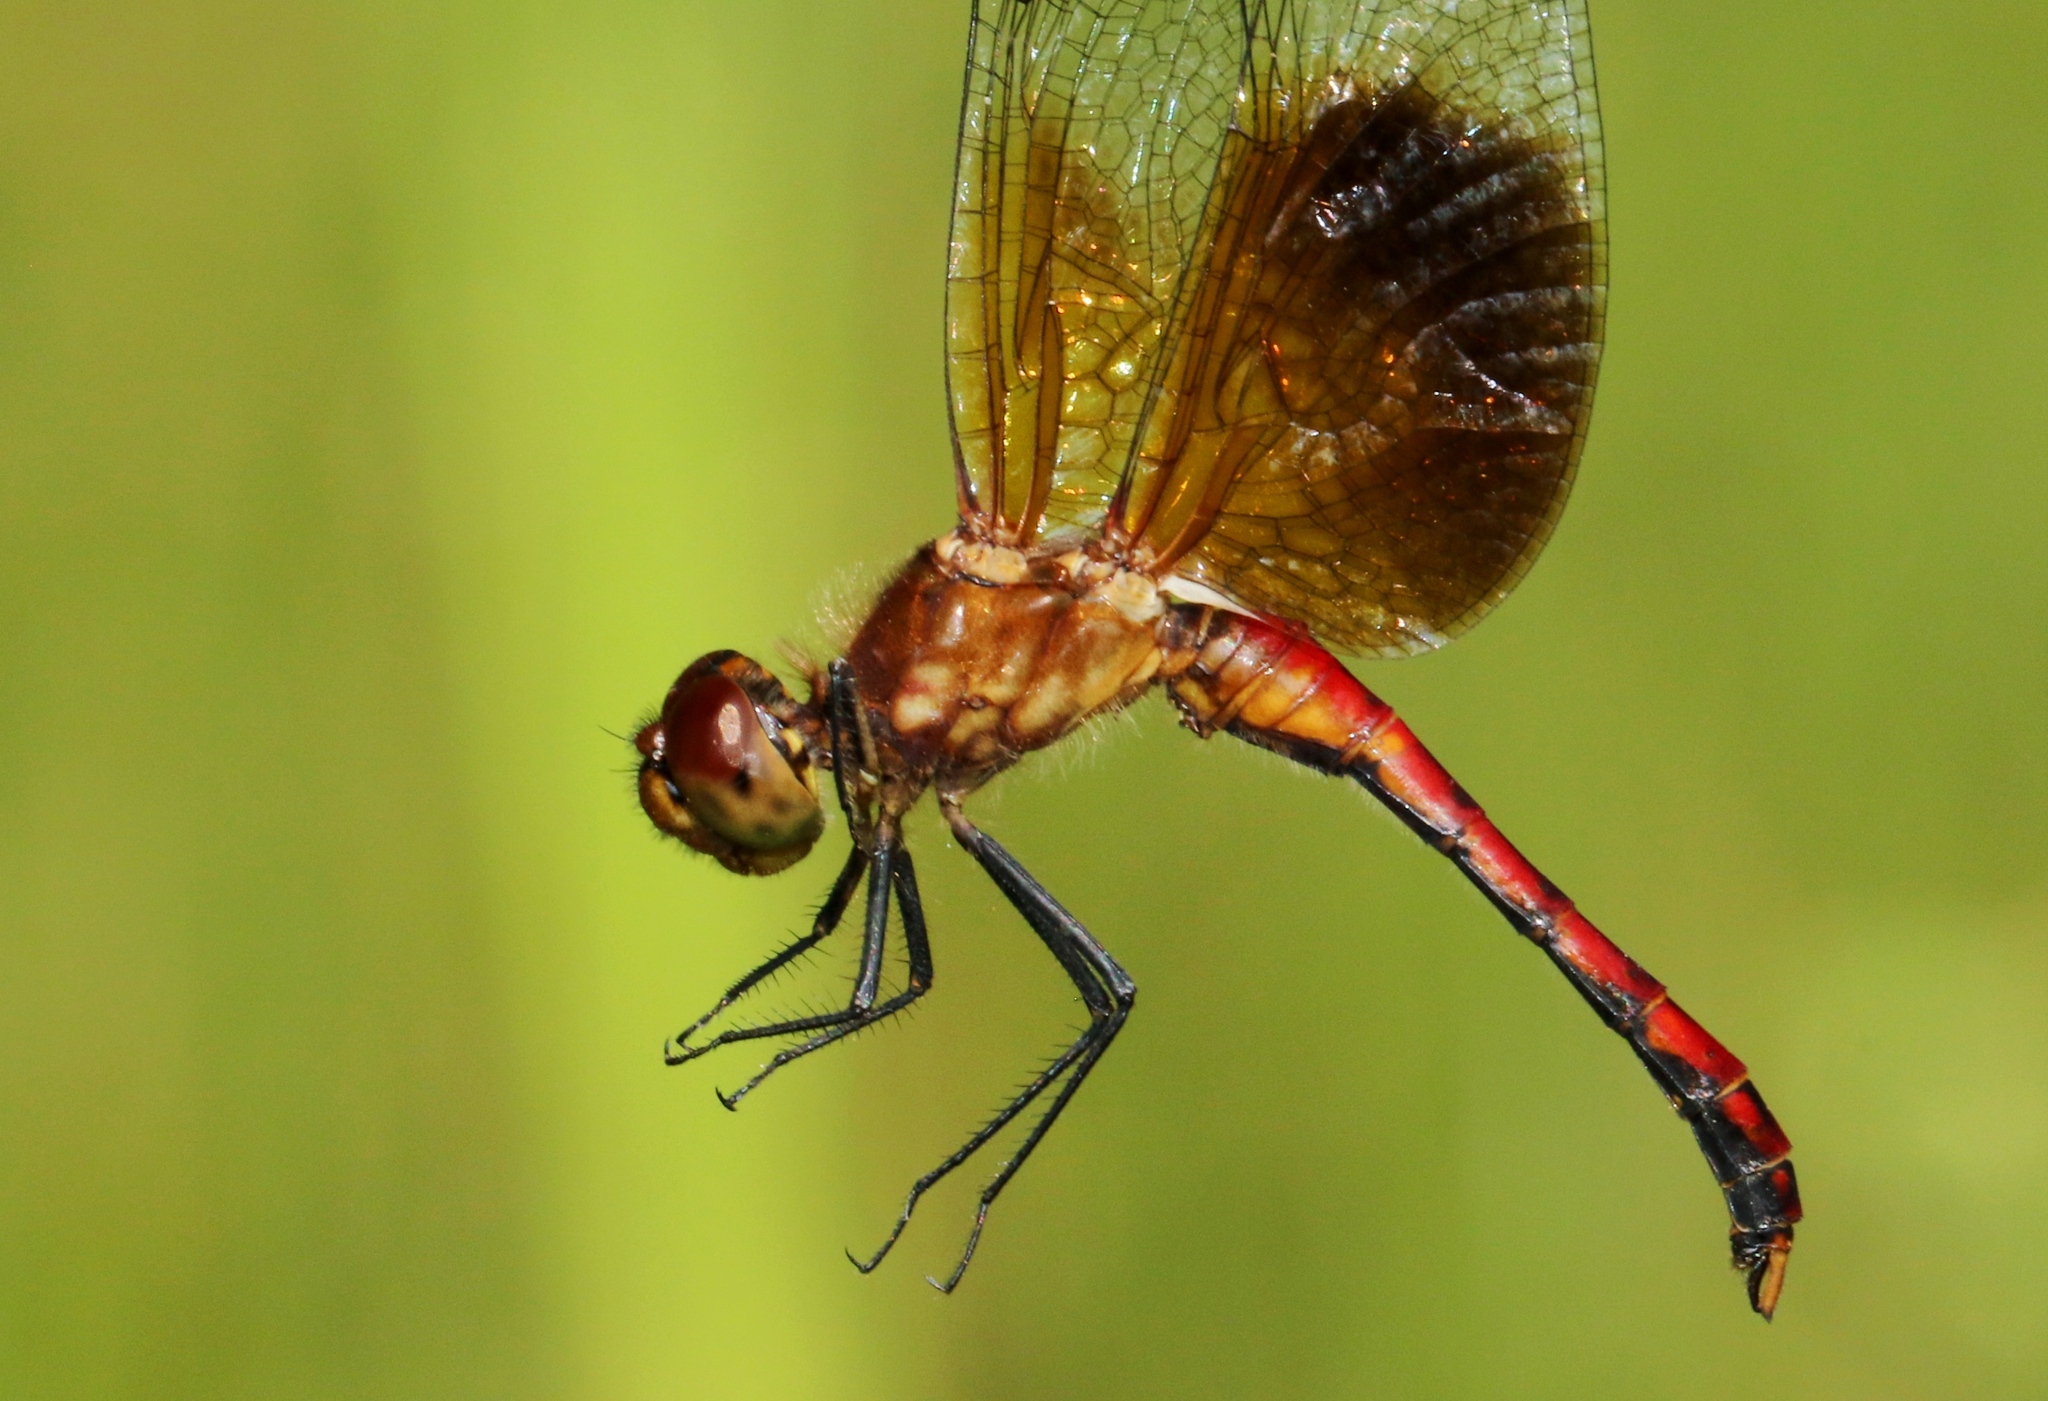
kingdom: Animalia
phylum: Arthropoda
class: Insecta
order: Odonata
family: Libellulidae
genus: Sympetrum
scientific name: Sympetrum semicinctum
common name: Band-winged meadowhawk
